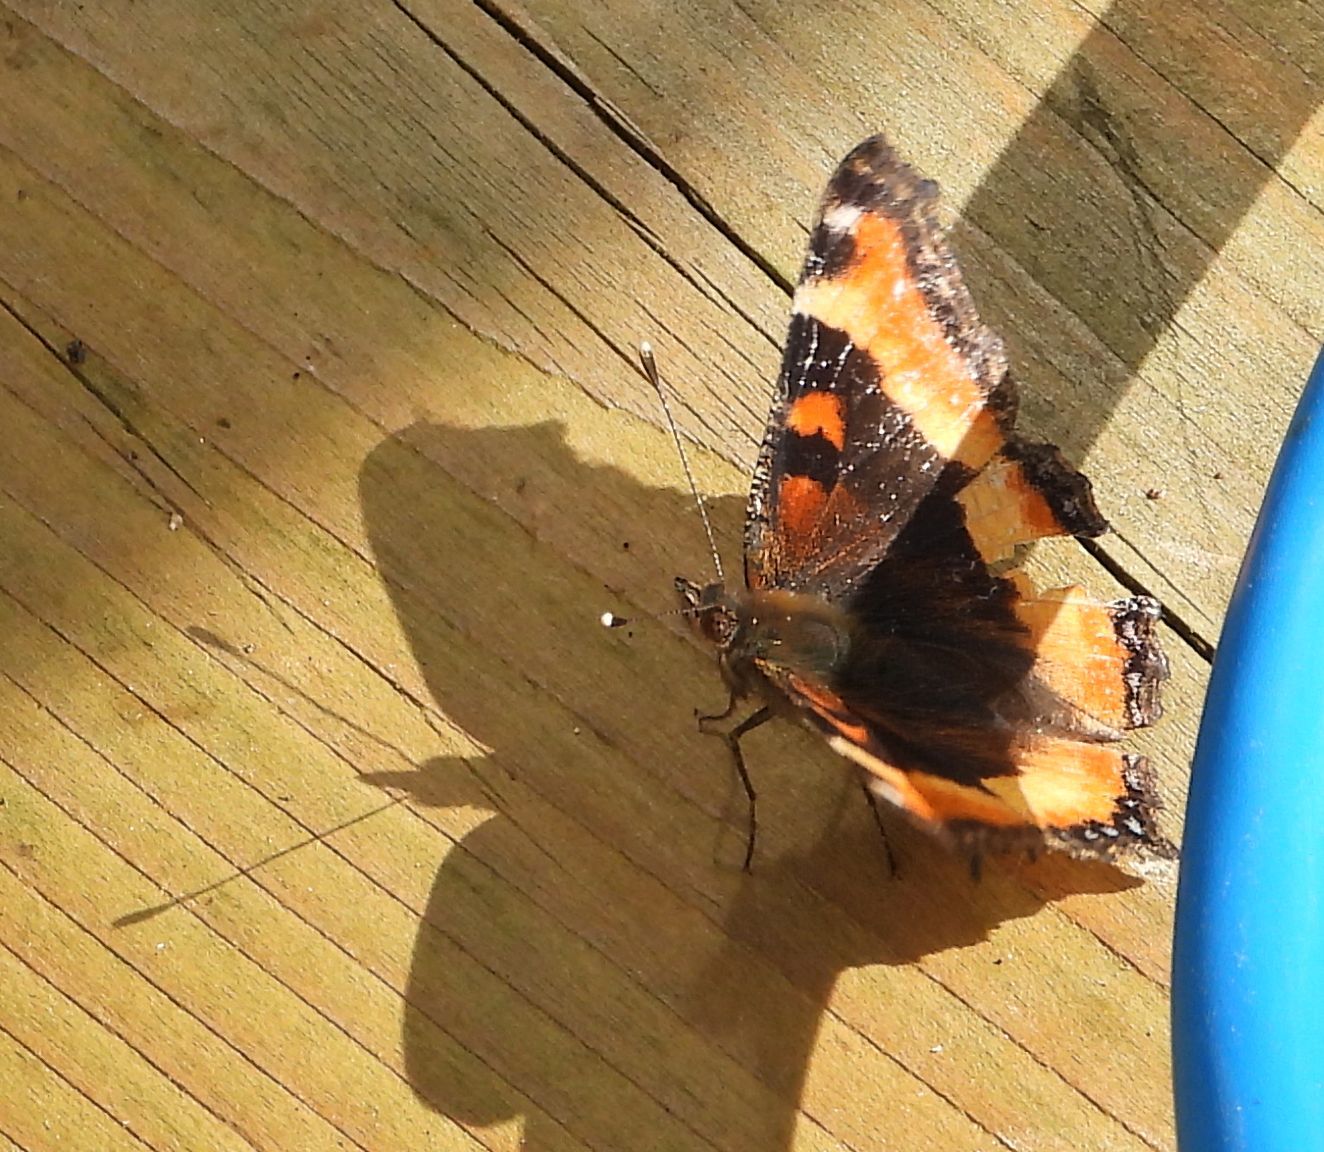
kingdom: Animalia
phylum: Arthropoda
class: Insecta
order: Lepidoptera
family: Nymphalidae
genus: Aglais
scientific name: Aglais milberti
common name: Milbert's tortoiseshell
